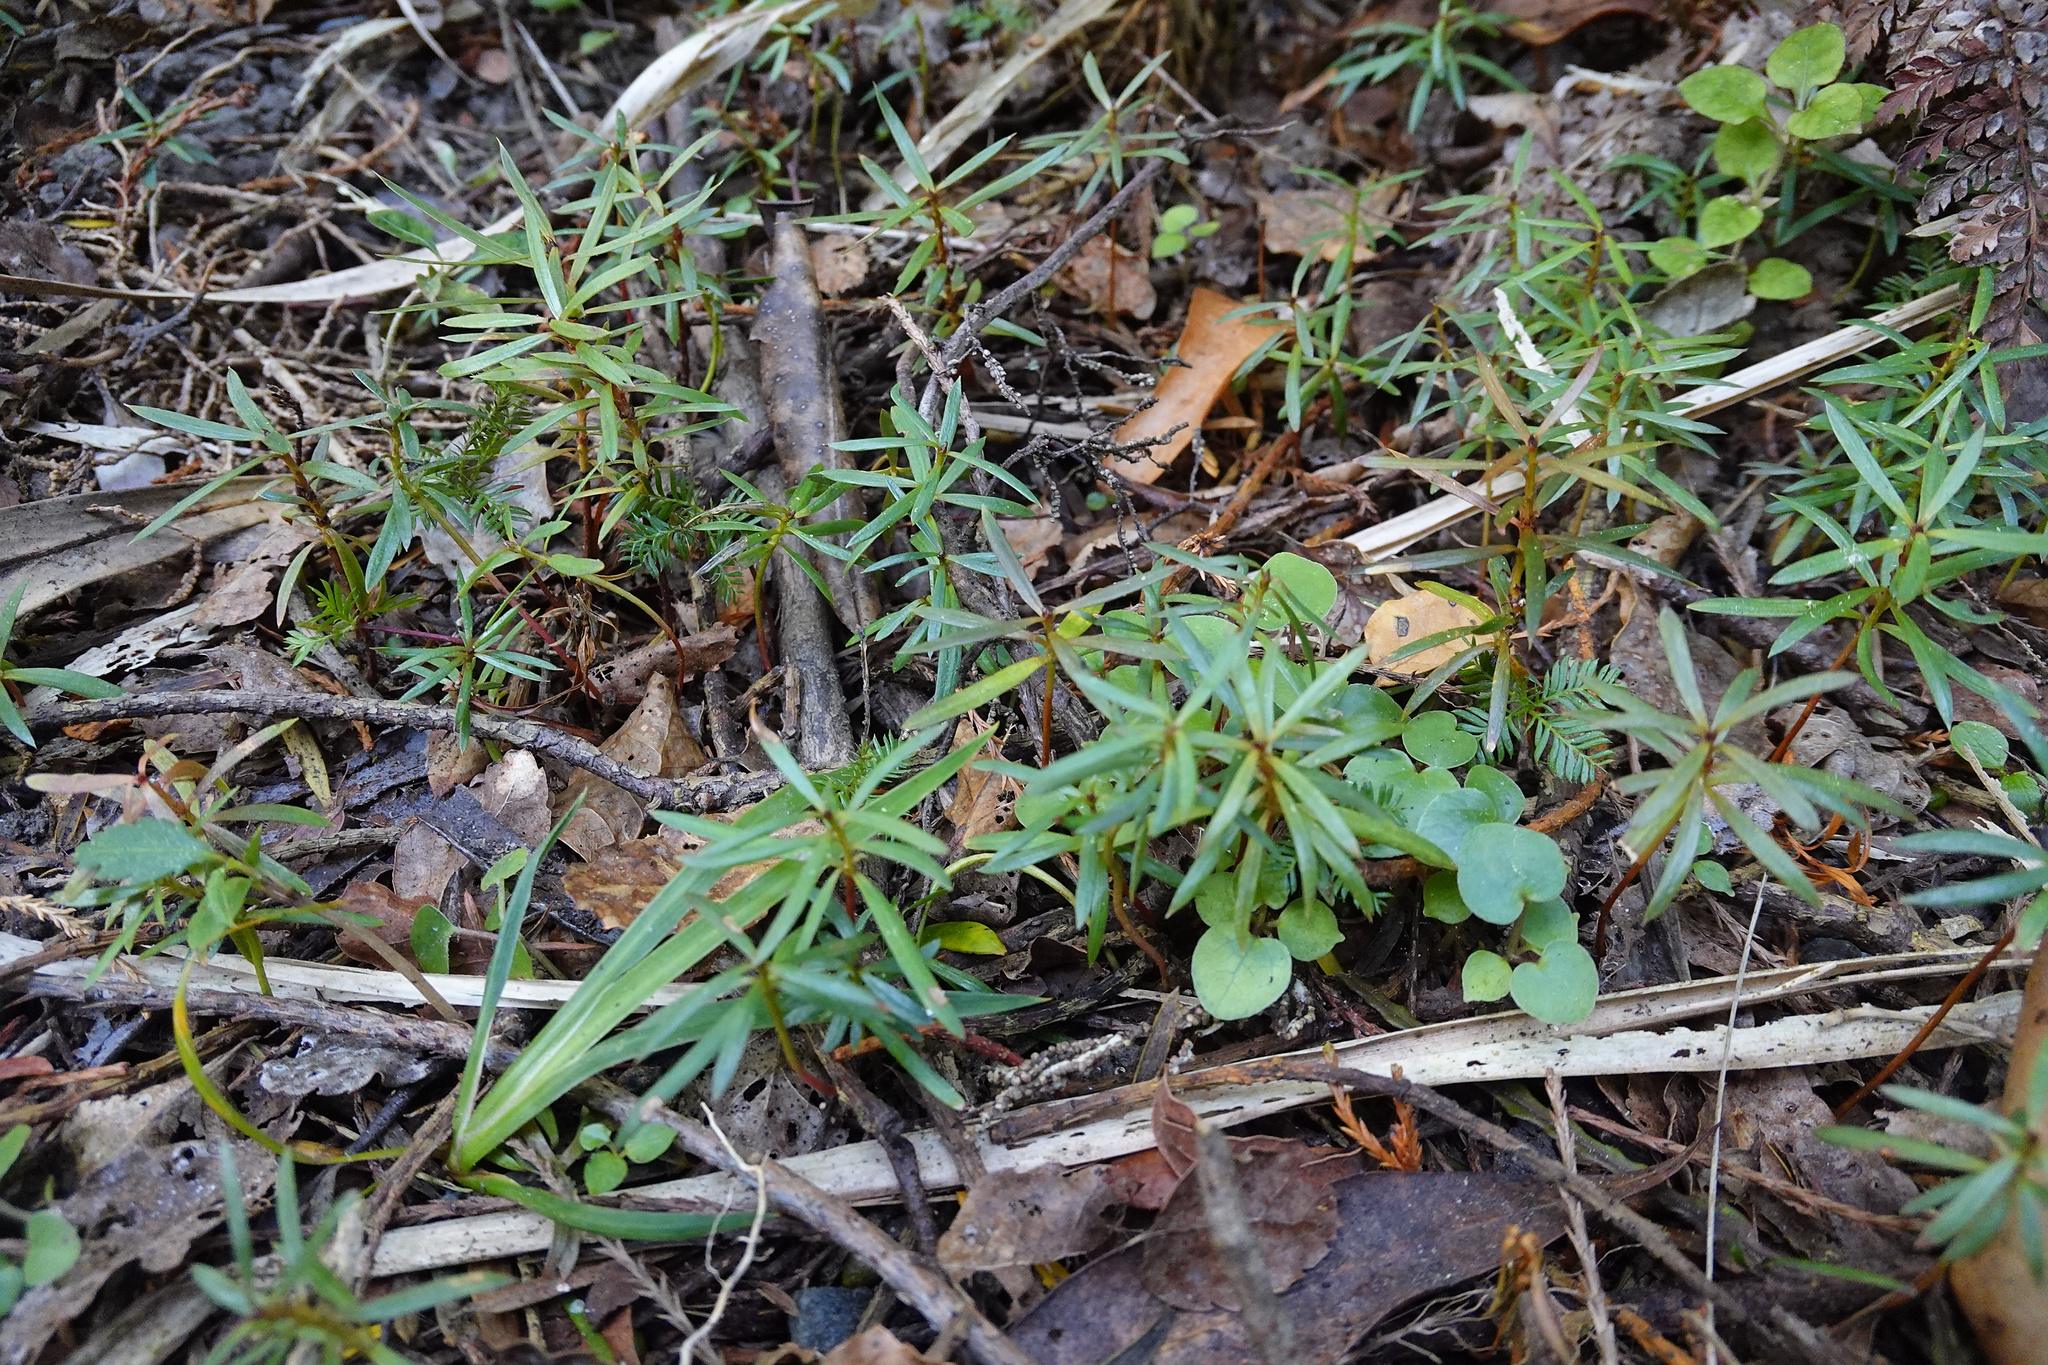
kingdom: Plantae
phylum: Tracheophyta
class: Pinopsida
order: Pinales
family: Podocarpaceae
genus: Podocarpus
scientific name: Podocarpus totara
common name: Totara
